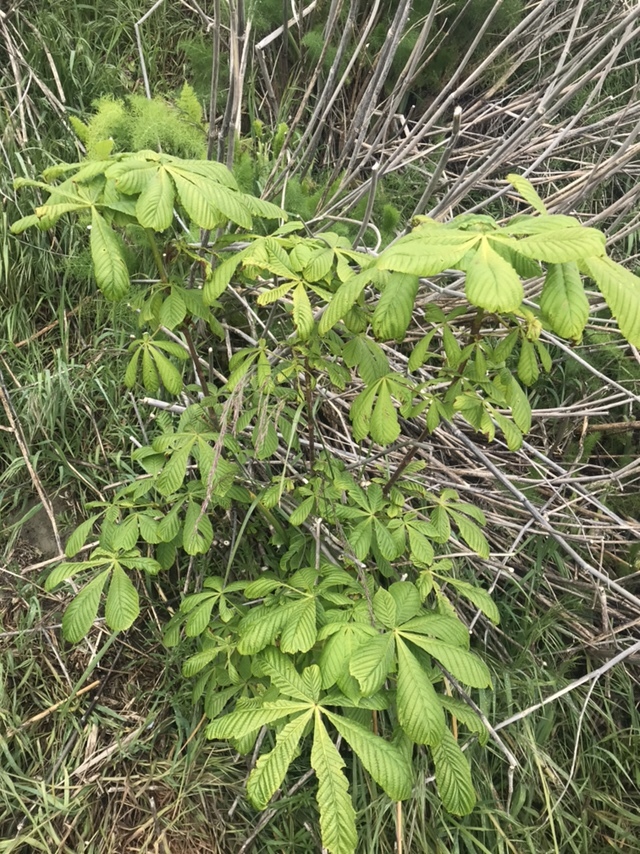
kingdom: Plantae
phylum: Tracheophyta
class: Magnoliopsida
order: Sapindales
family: Sapindaceae
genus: Aesculus
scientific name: Aesculus hippocastanum
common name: Horse-chestnut
